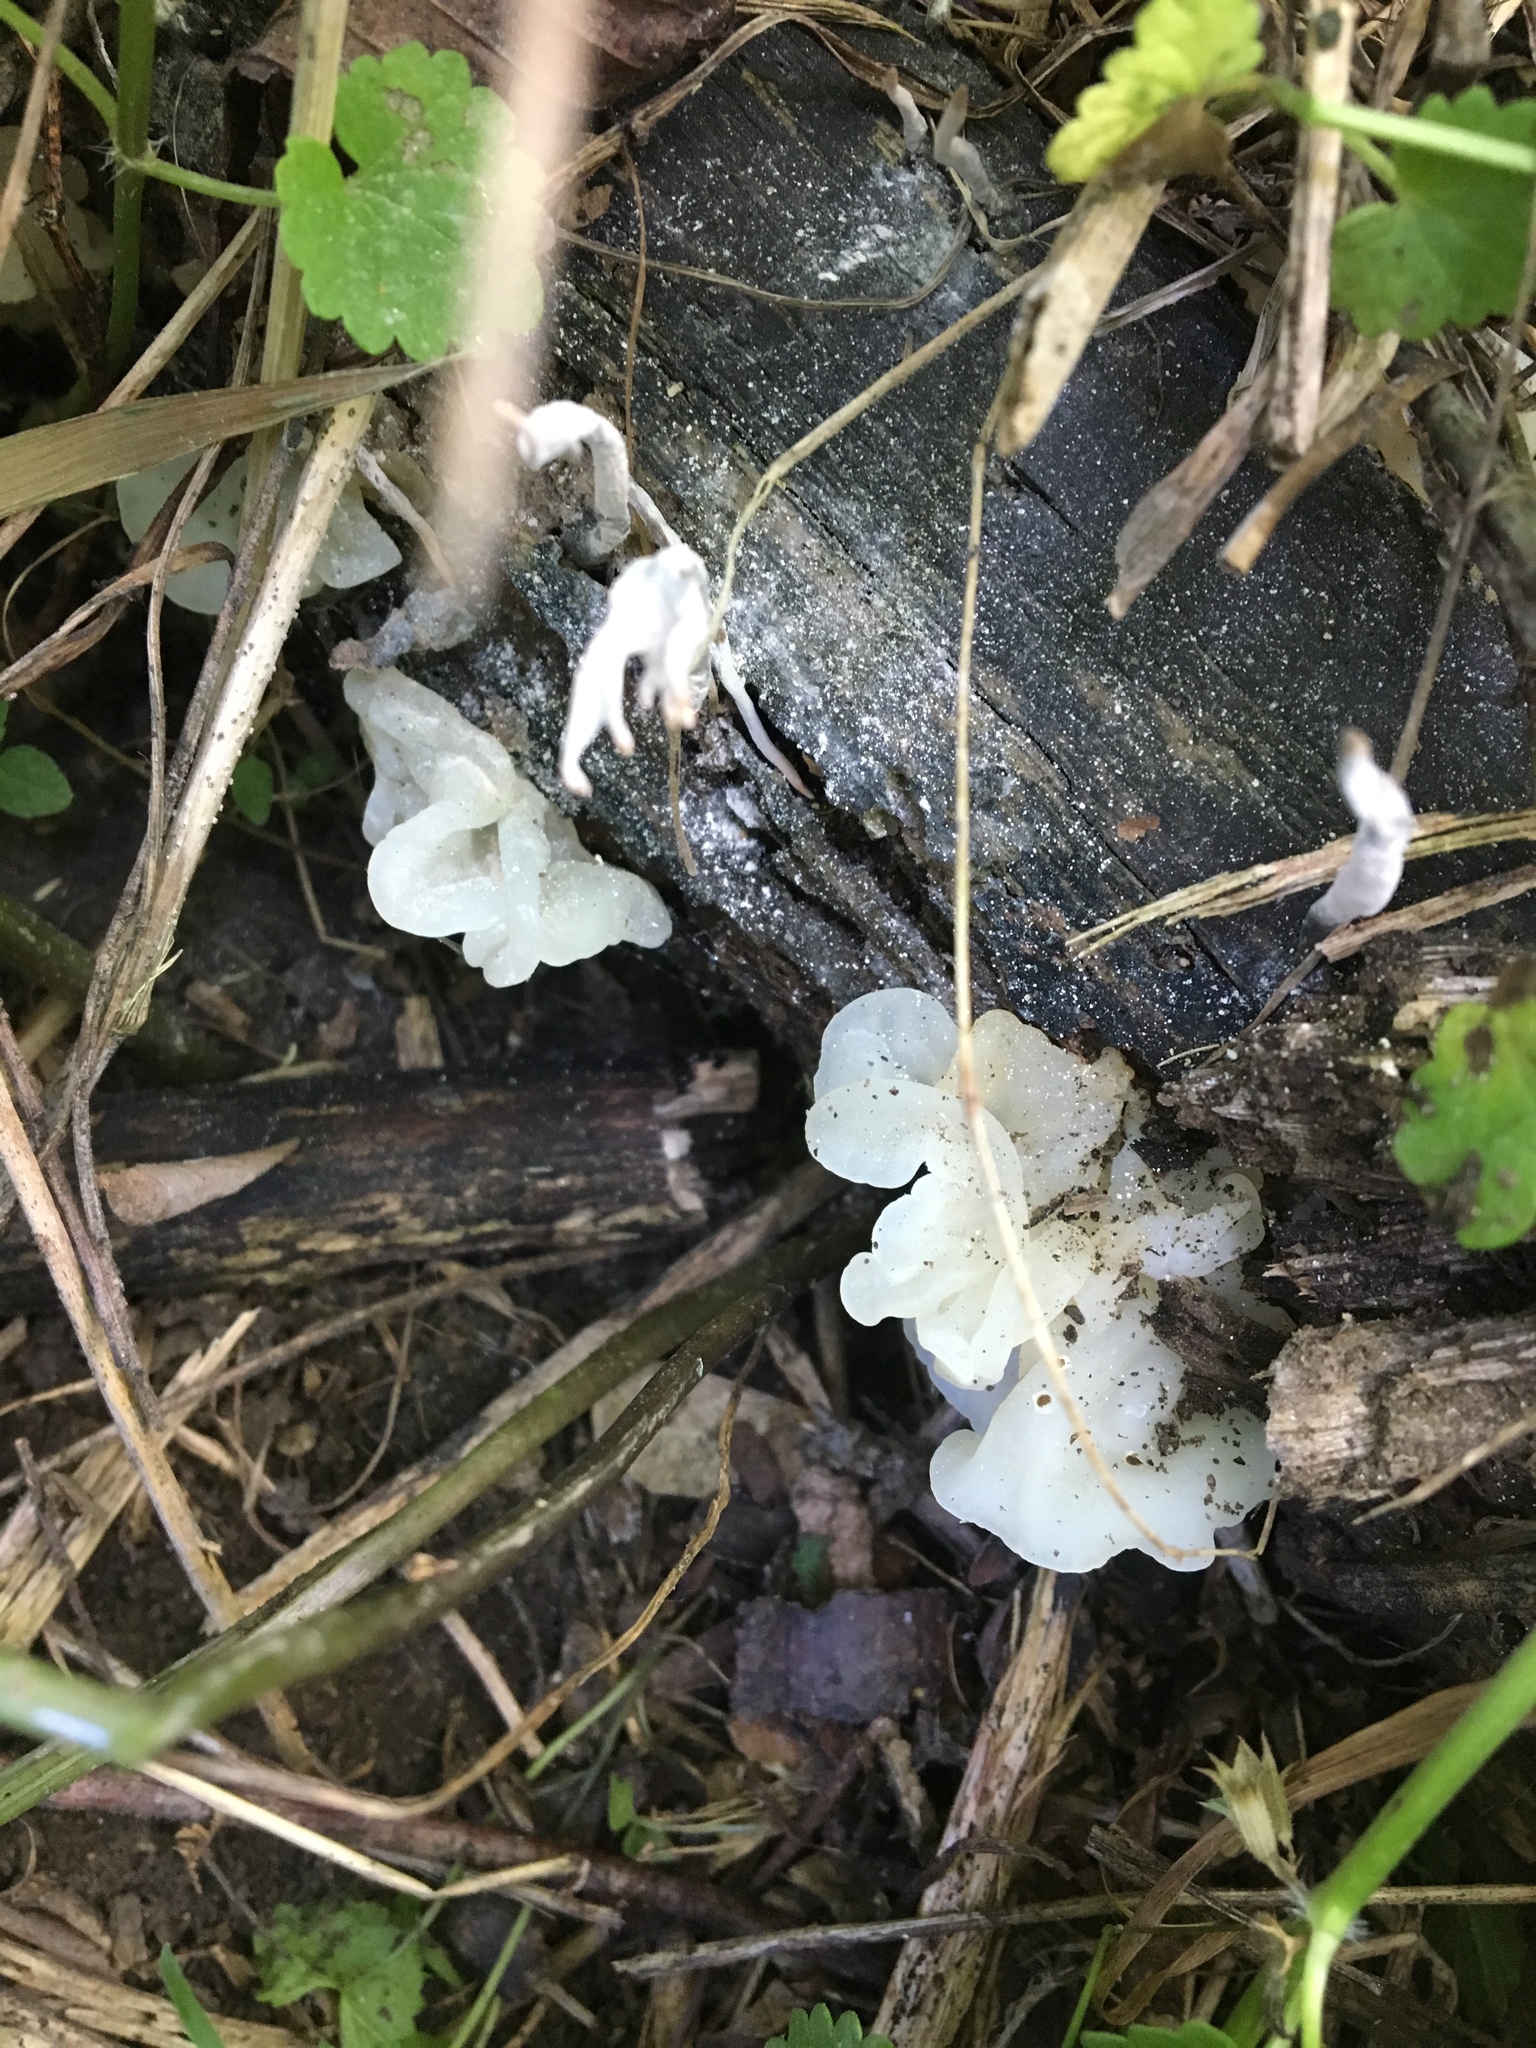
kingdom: Fungi
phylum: Basidiomycota
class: Agaricomycetes
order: Auriculariales
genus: Ductifera
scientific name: Ductifera pululahuana
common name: White jelly fungus
